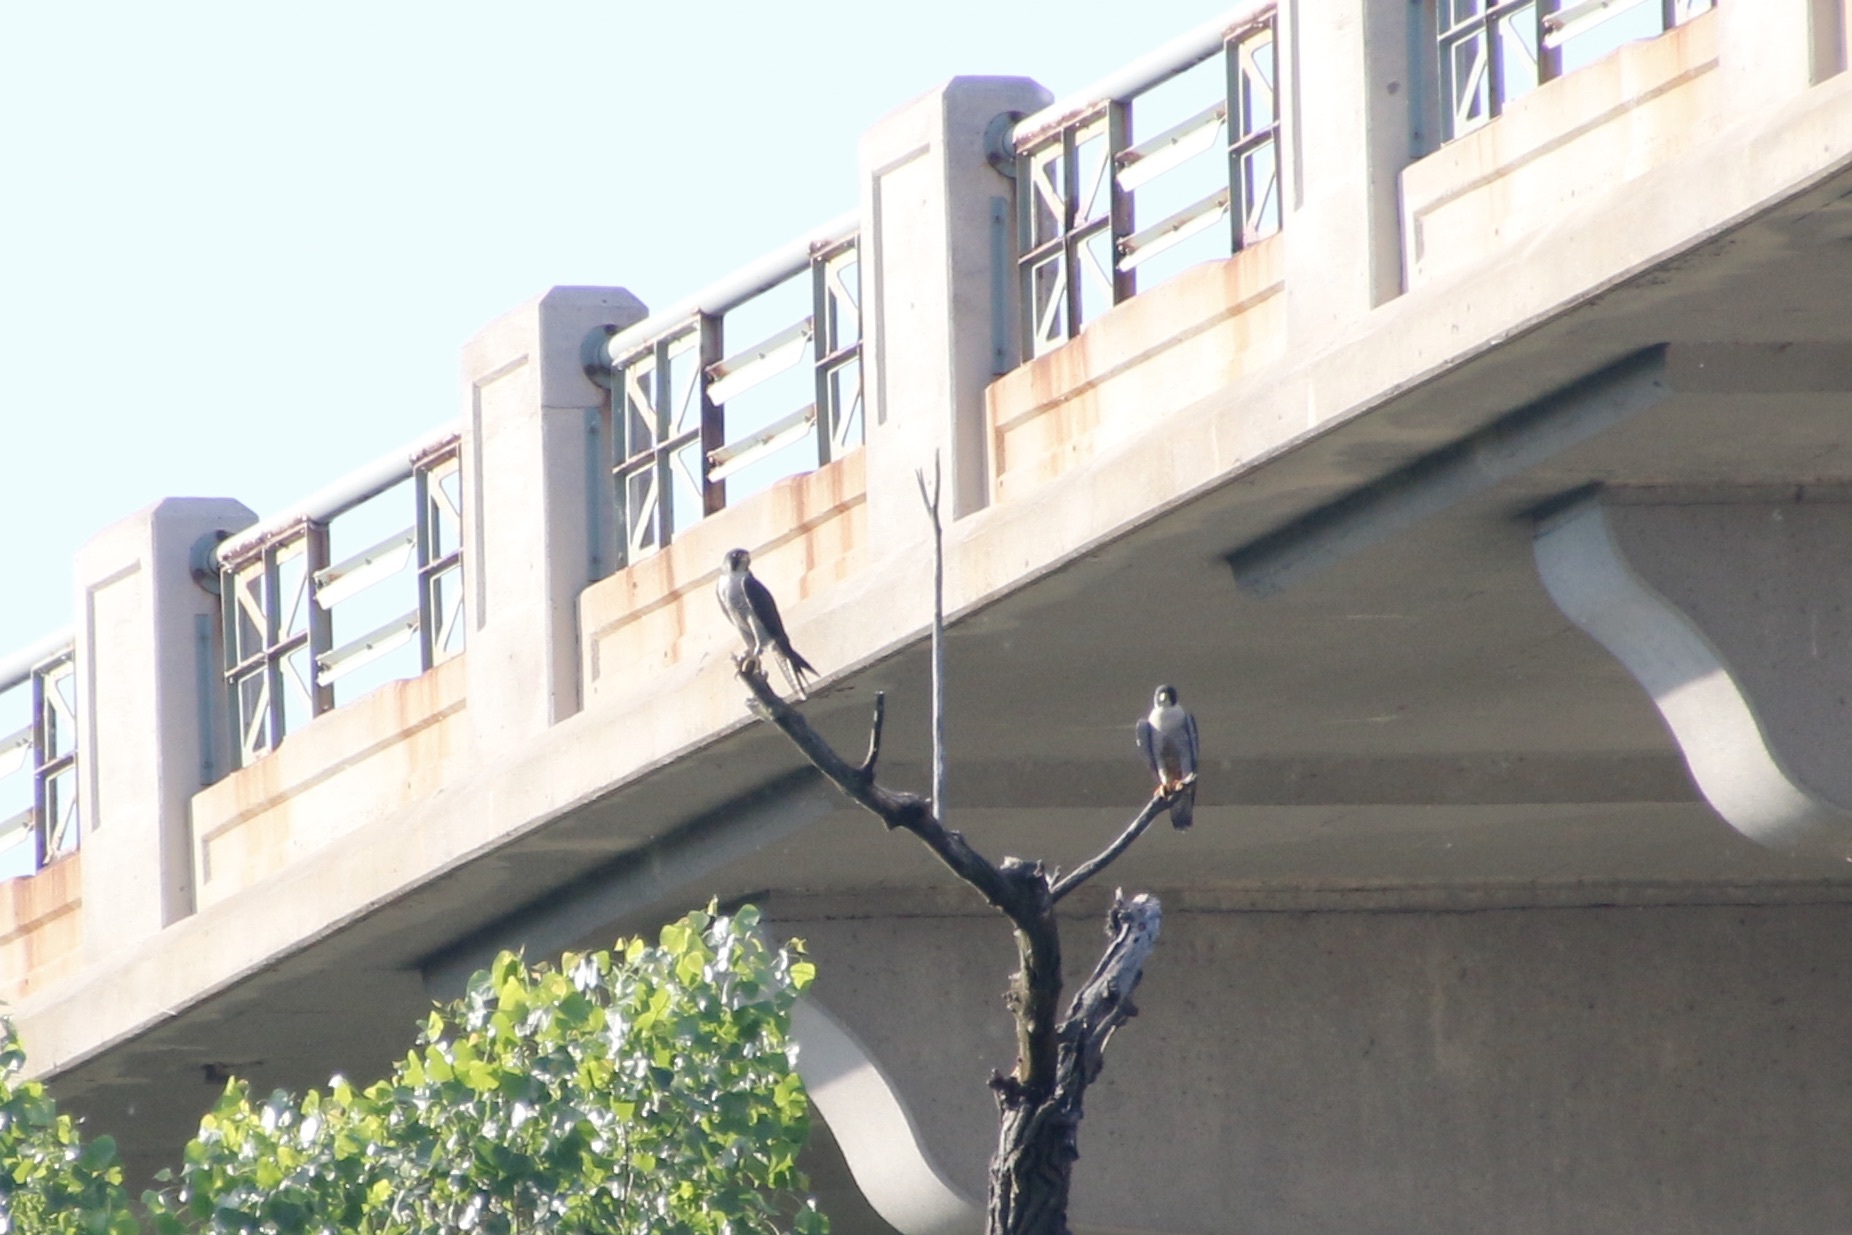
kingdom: Animalia
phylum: Chordata
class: Aves
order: Falconiformes
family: Falconidae
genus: Falco
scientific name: Falco peregrinus
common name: Peregrine falcon
